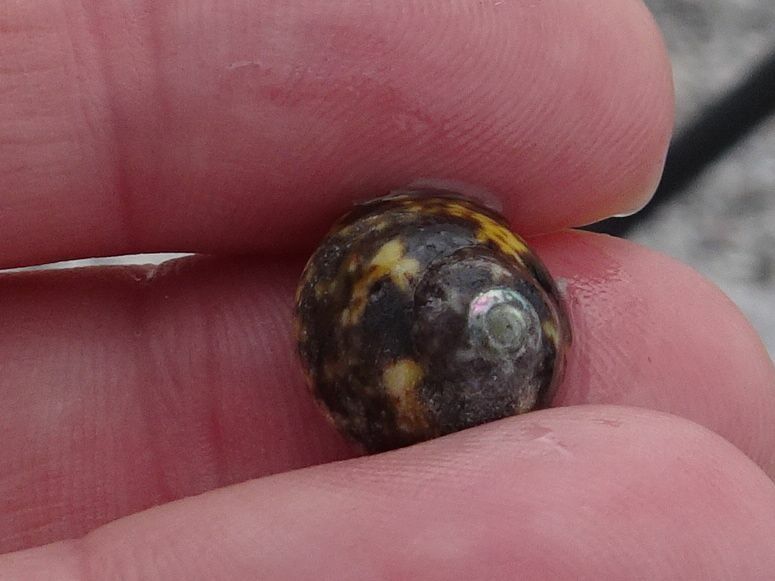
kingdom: Animalia
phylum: Mollusca
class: Gastropoda
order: Trochida
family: Trochidae
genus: Oxystele
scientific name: Oxystele impervia
